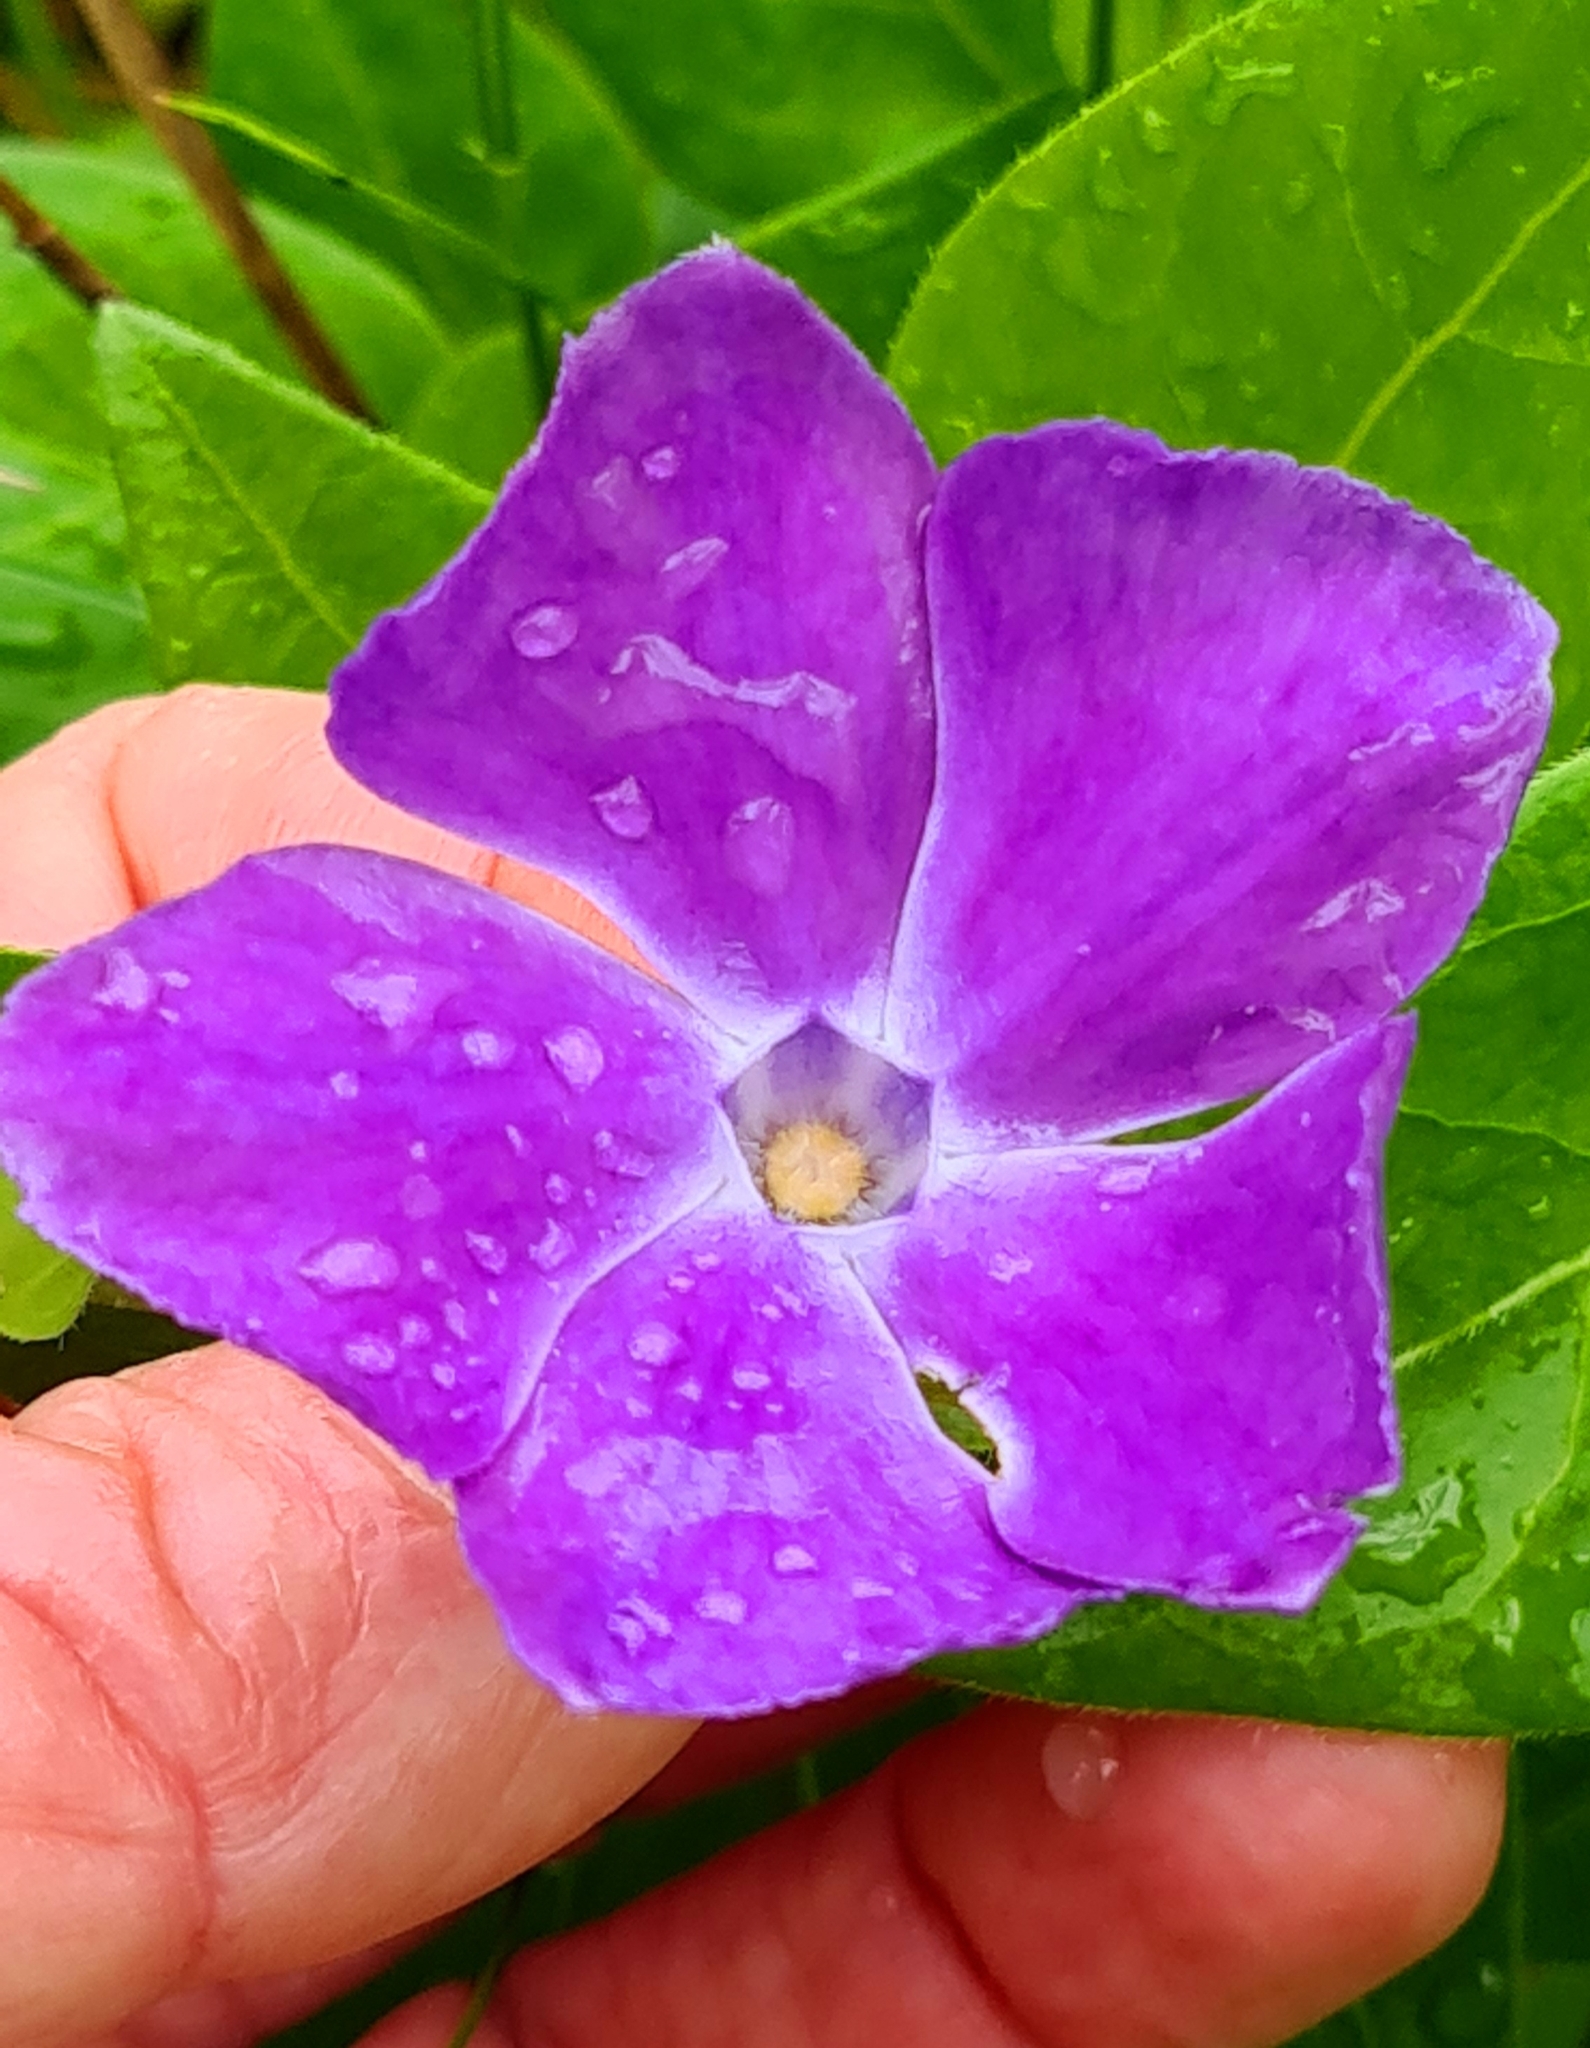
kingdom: Plantae
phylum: Tracheophyta
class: Magnoliopsida
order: Gentianales
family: Apocynaceae
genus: Vinca
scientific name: Vinca major
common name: Greater periwinkle
